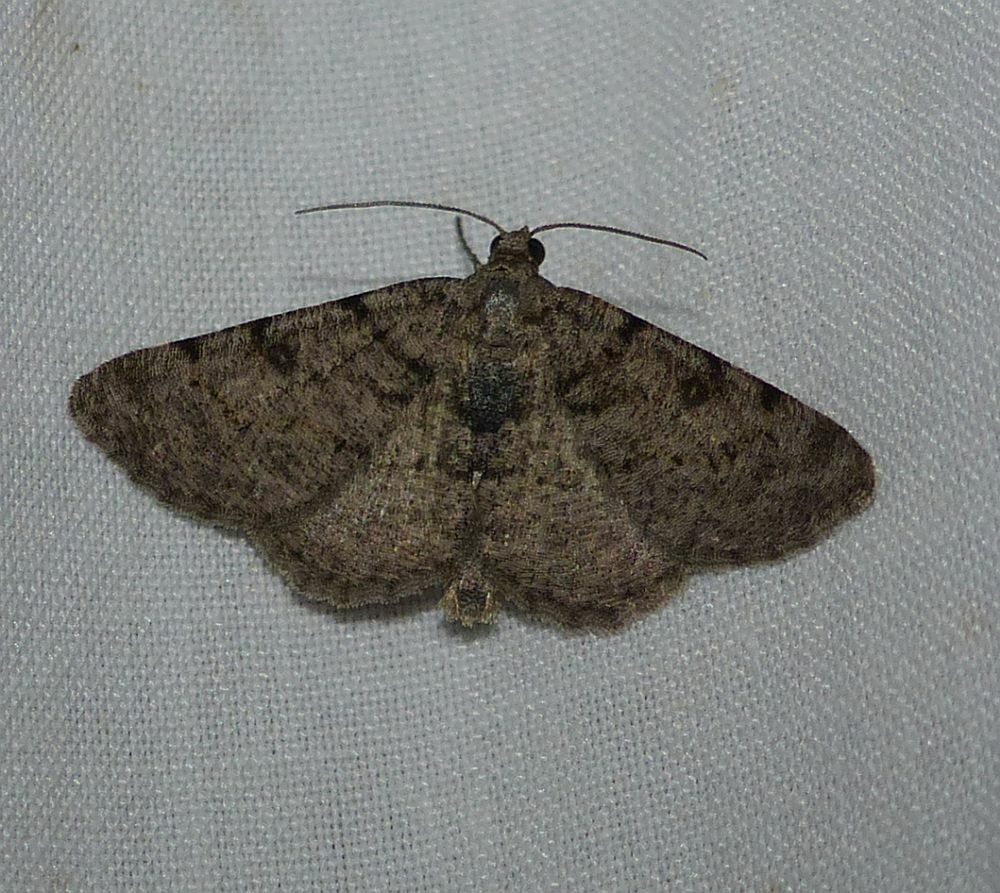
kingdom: Animalia
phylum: Arthropoda
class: Insecta
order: Lepidoptera
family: Geometridae
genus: Digrammia
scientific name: Digrammia gnophosaria
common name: Hollow-spotted angle
